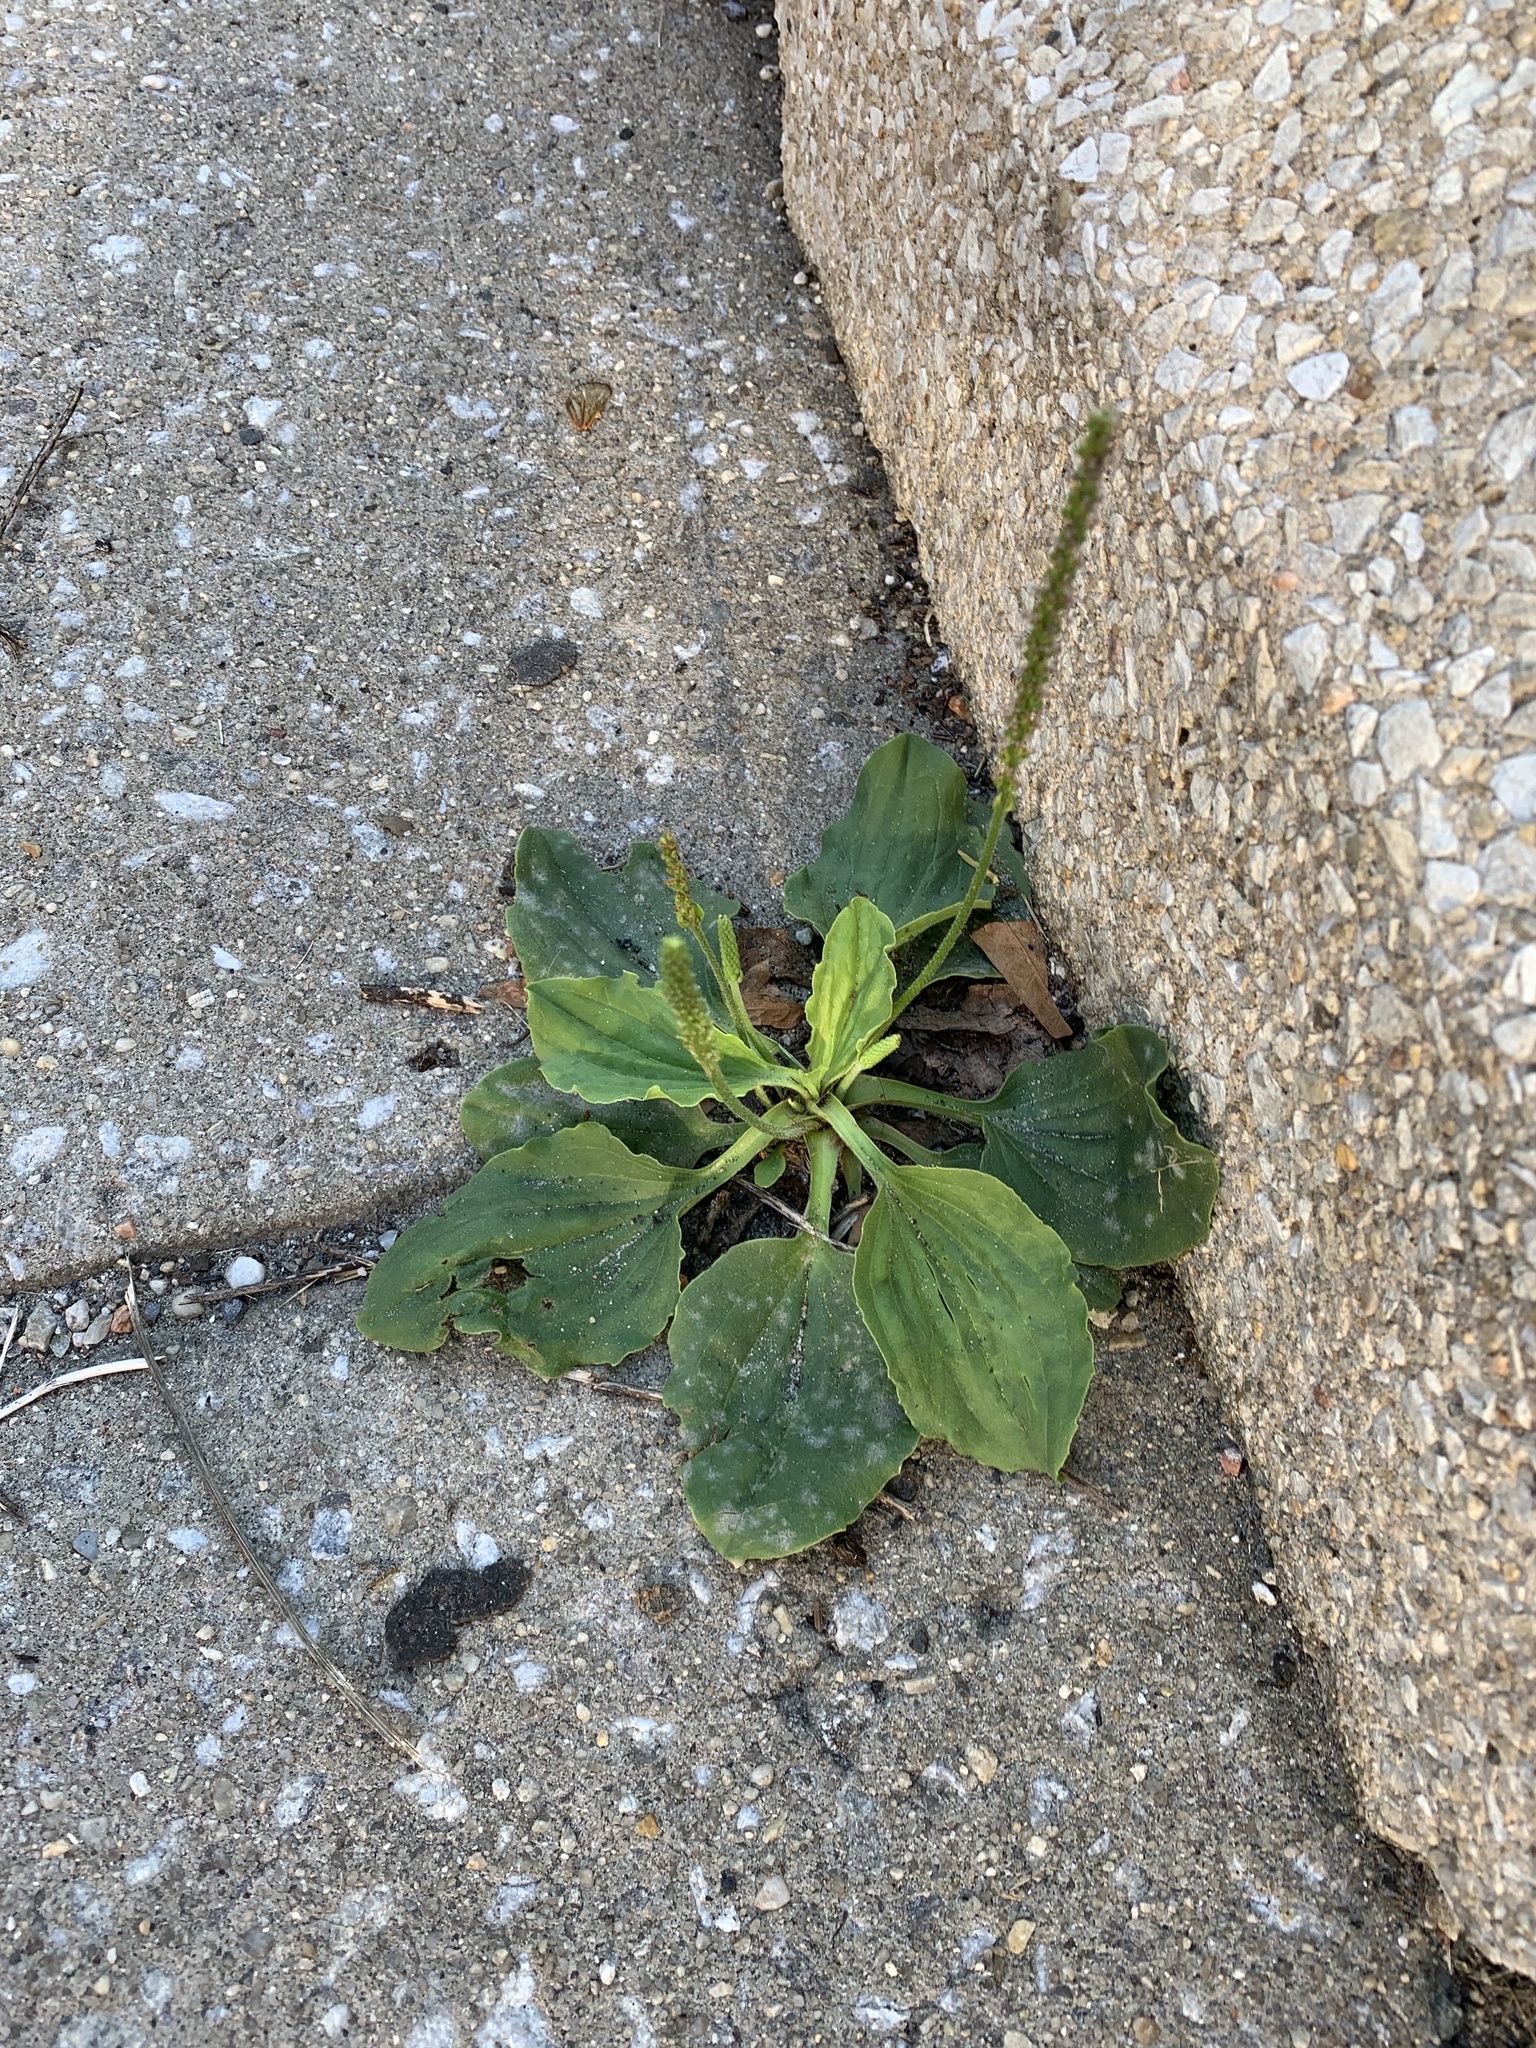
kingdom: Plantae
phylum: Tracheophyta
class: Magnoliopsida
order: Lamiales
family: Plantaginaceae
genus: Plantago
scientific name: Plantago major
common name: Common plantain
